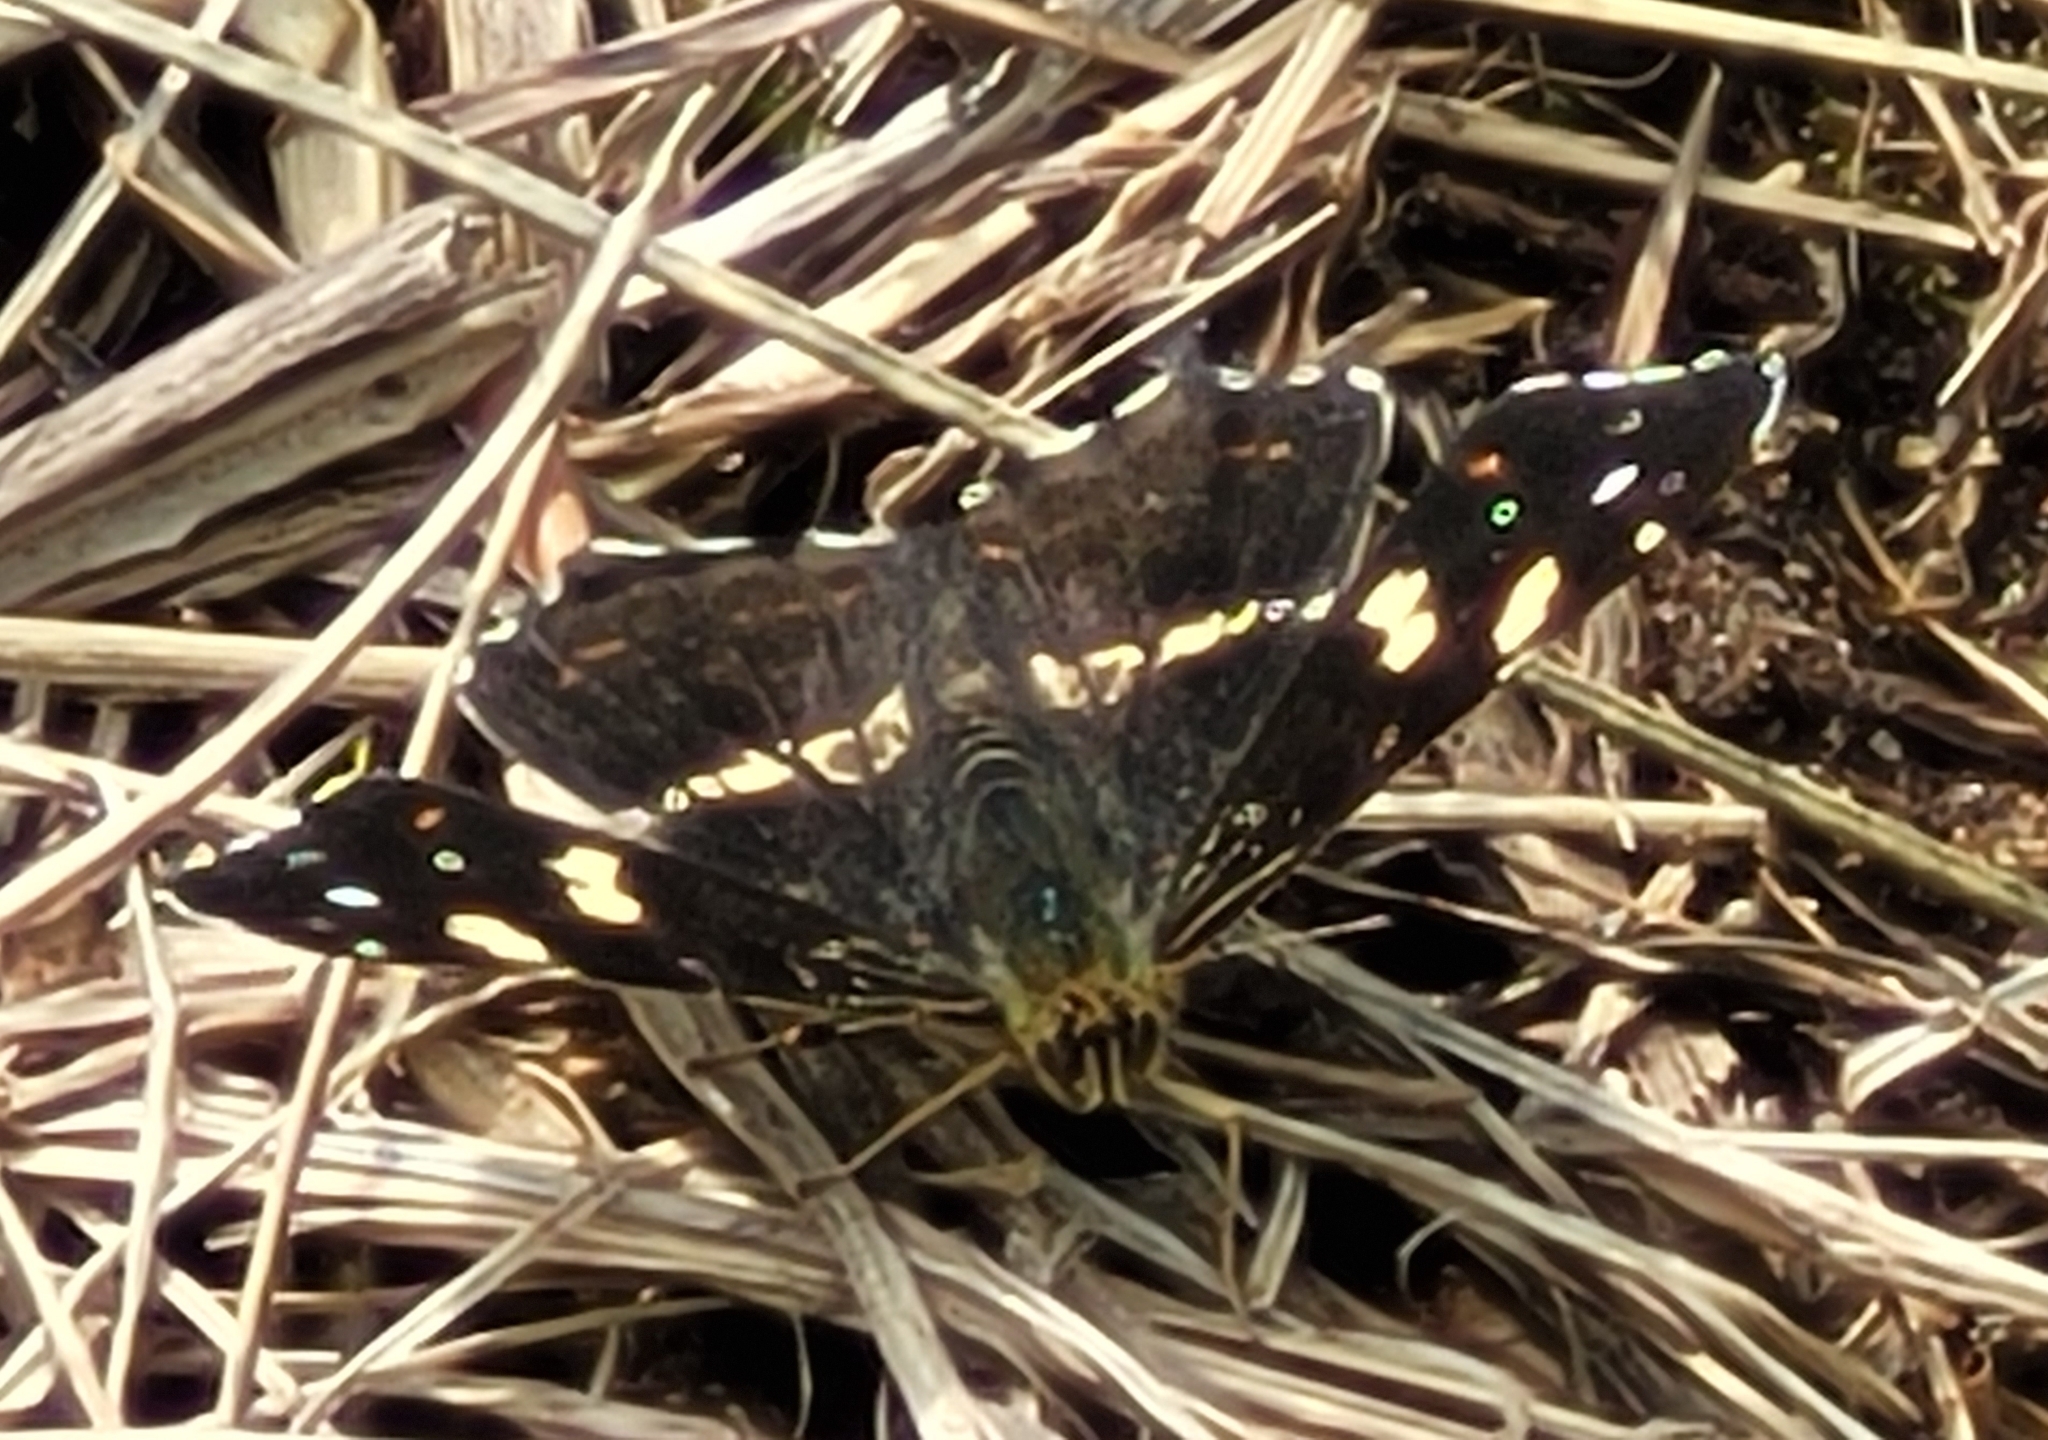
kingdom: Animalia
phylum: Arthropoda
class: Insecta
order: Lepidoptera
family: Nymphalidae
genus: Araschnia
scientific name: Araschnia levana
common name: Map butterfly
